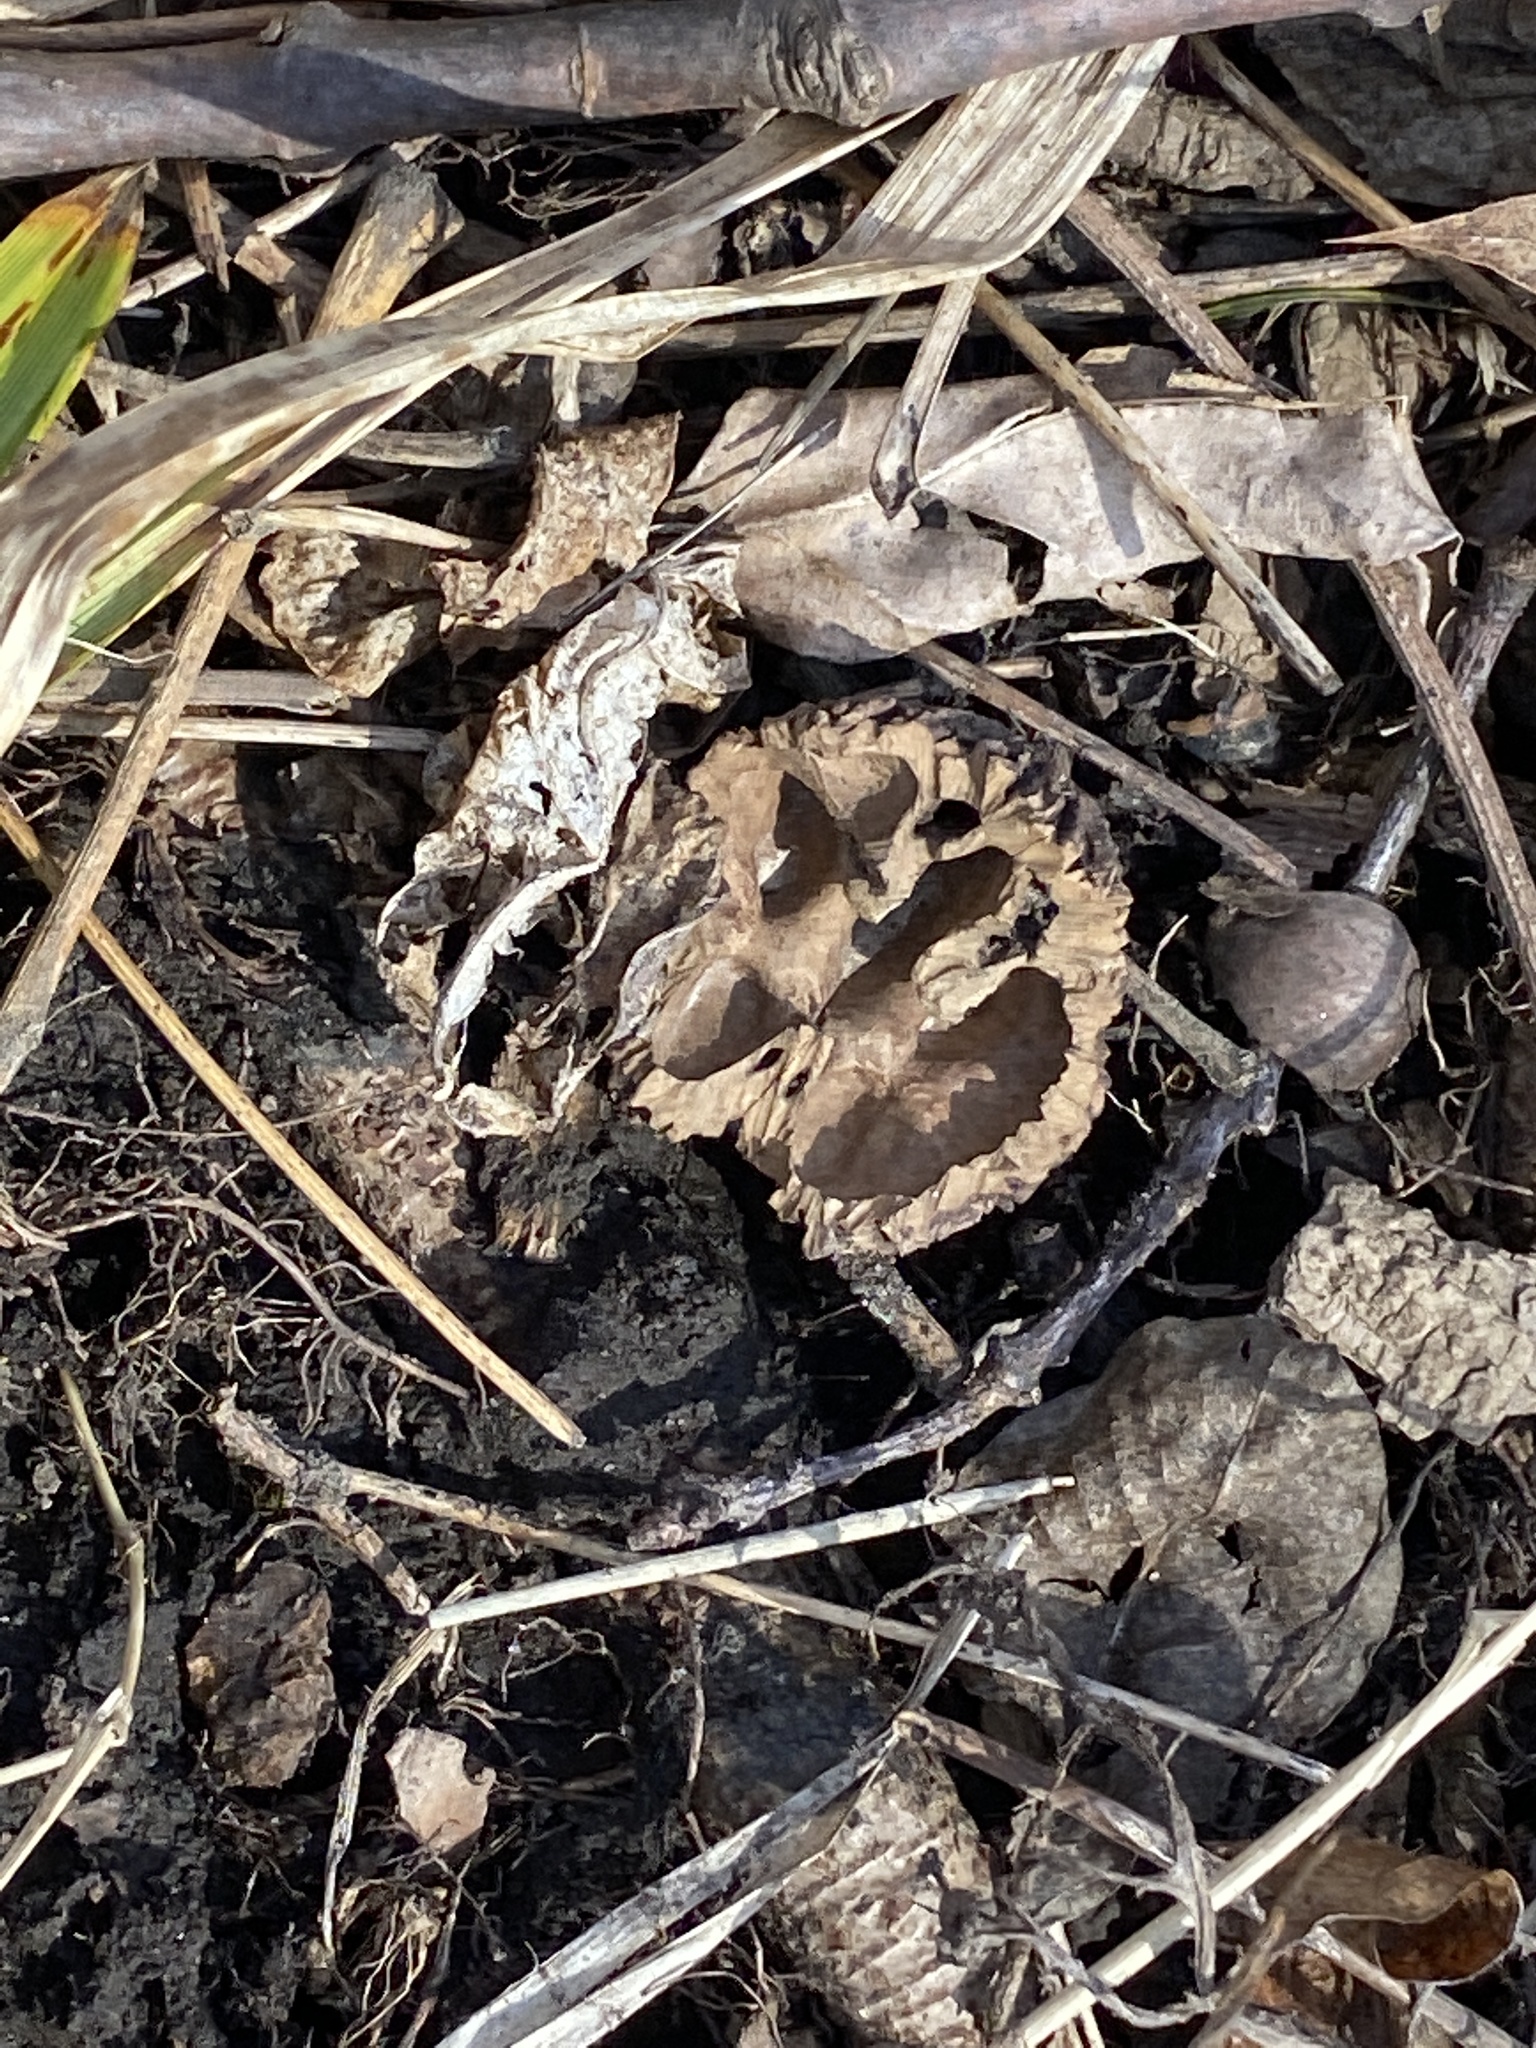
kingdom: Plantae
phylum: Tracheophyta
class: Magnoliopsida
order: Fagales
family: Juglandaceae
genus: Juglans
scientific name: Juglans nigra
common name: Black walnut
